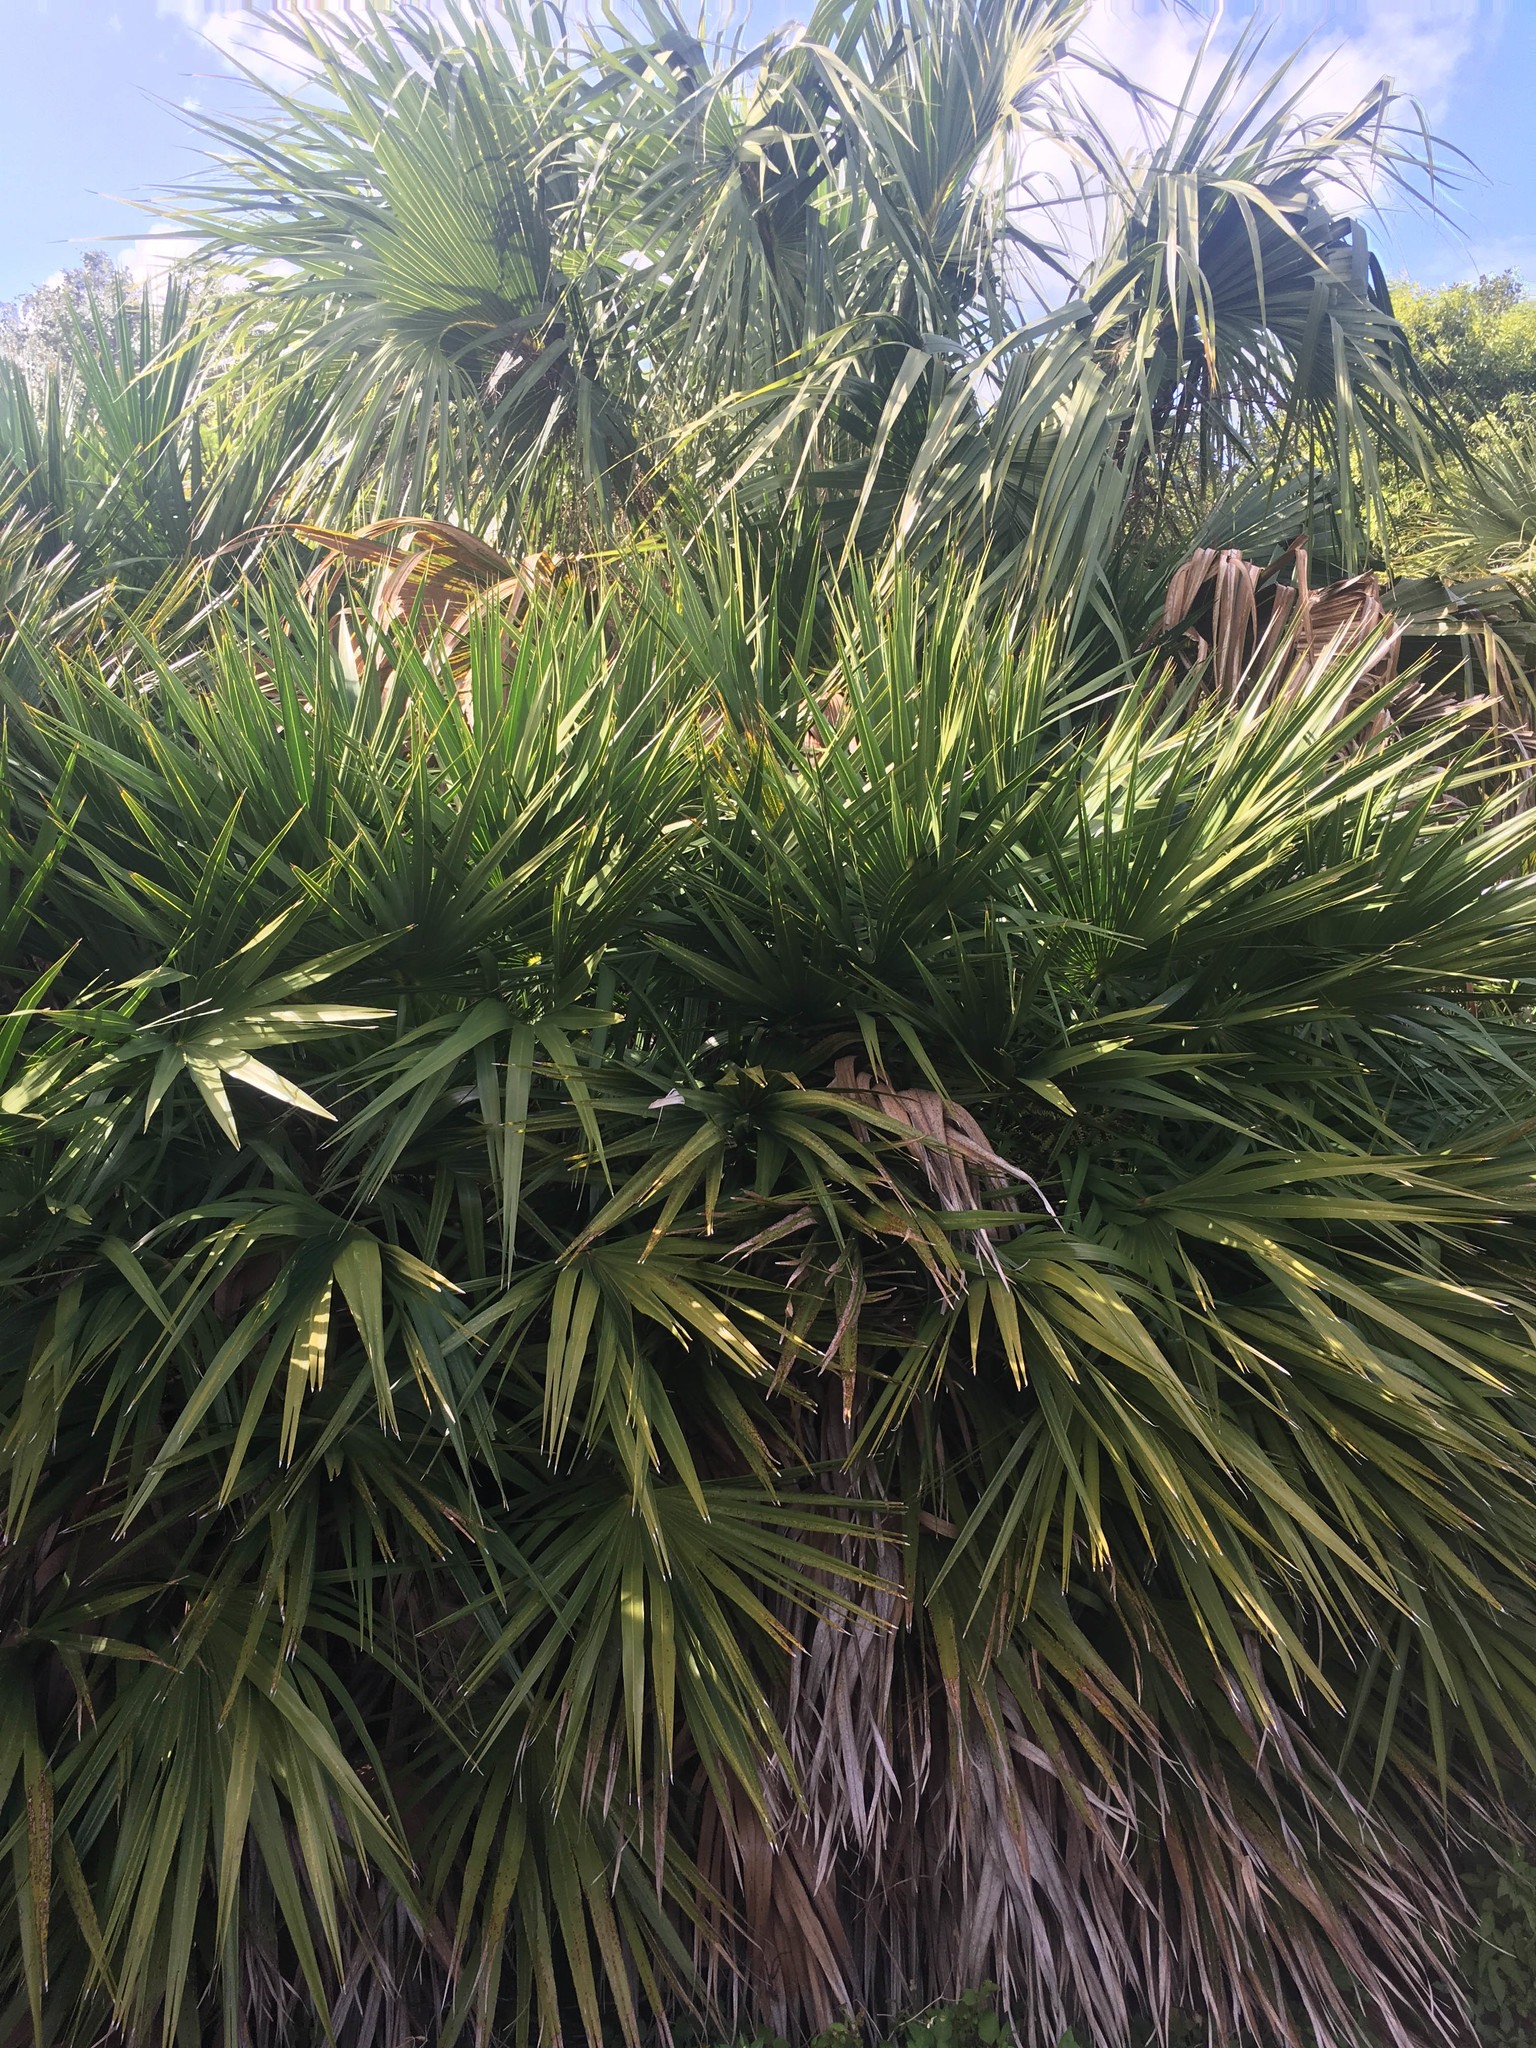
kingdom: Plantae
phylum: Tracheophyta
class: Liliopsida
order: Arecales
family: Arecaceae
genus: Serenoa
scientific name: Serenoa repens
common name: Saw-palmetto
